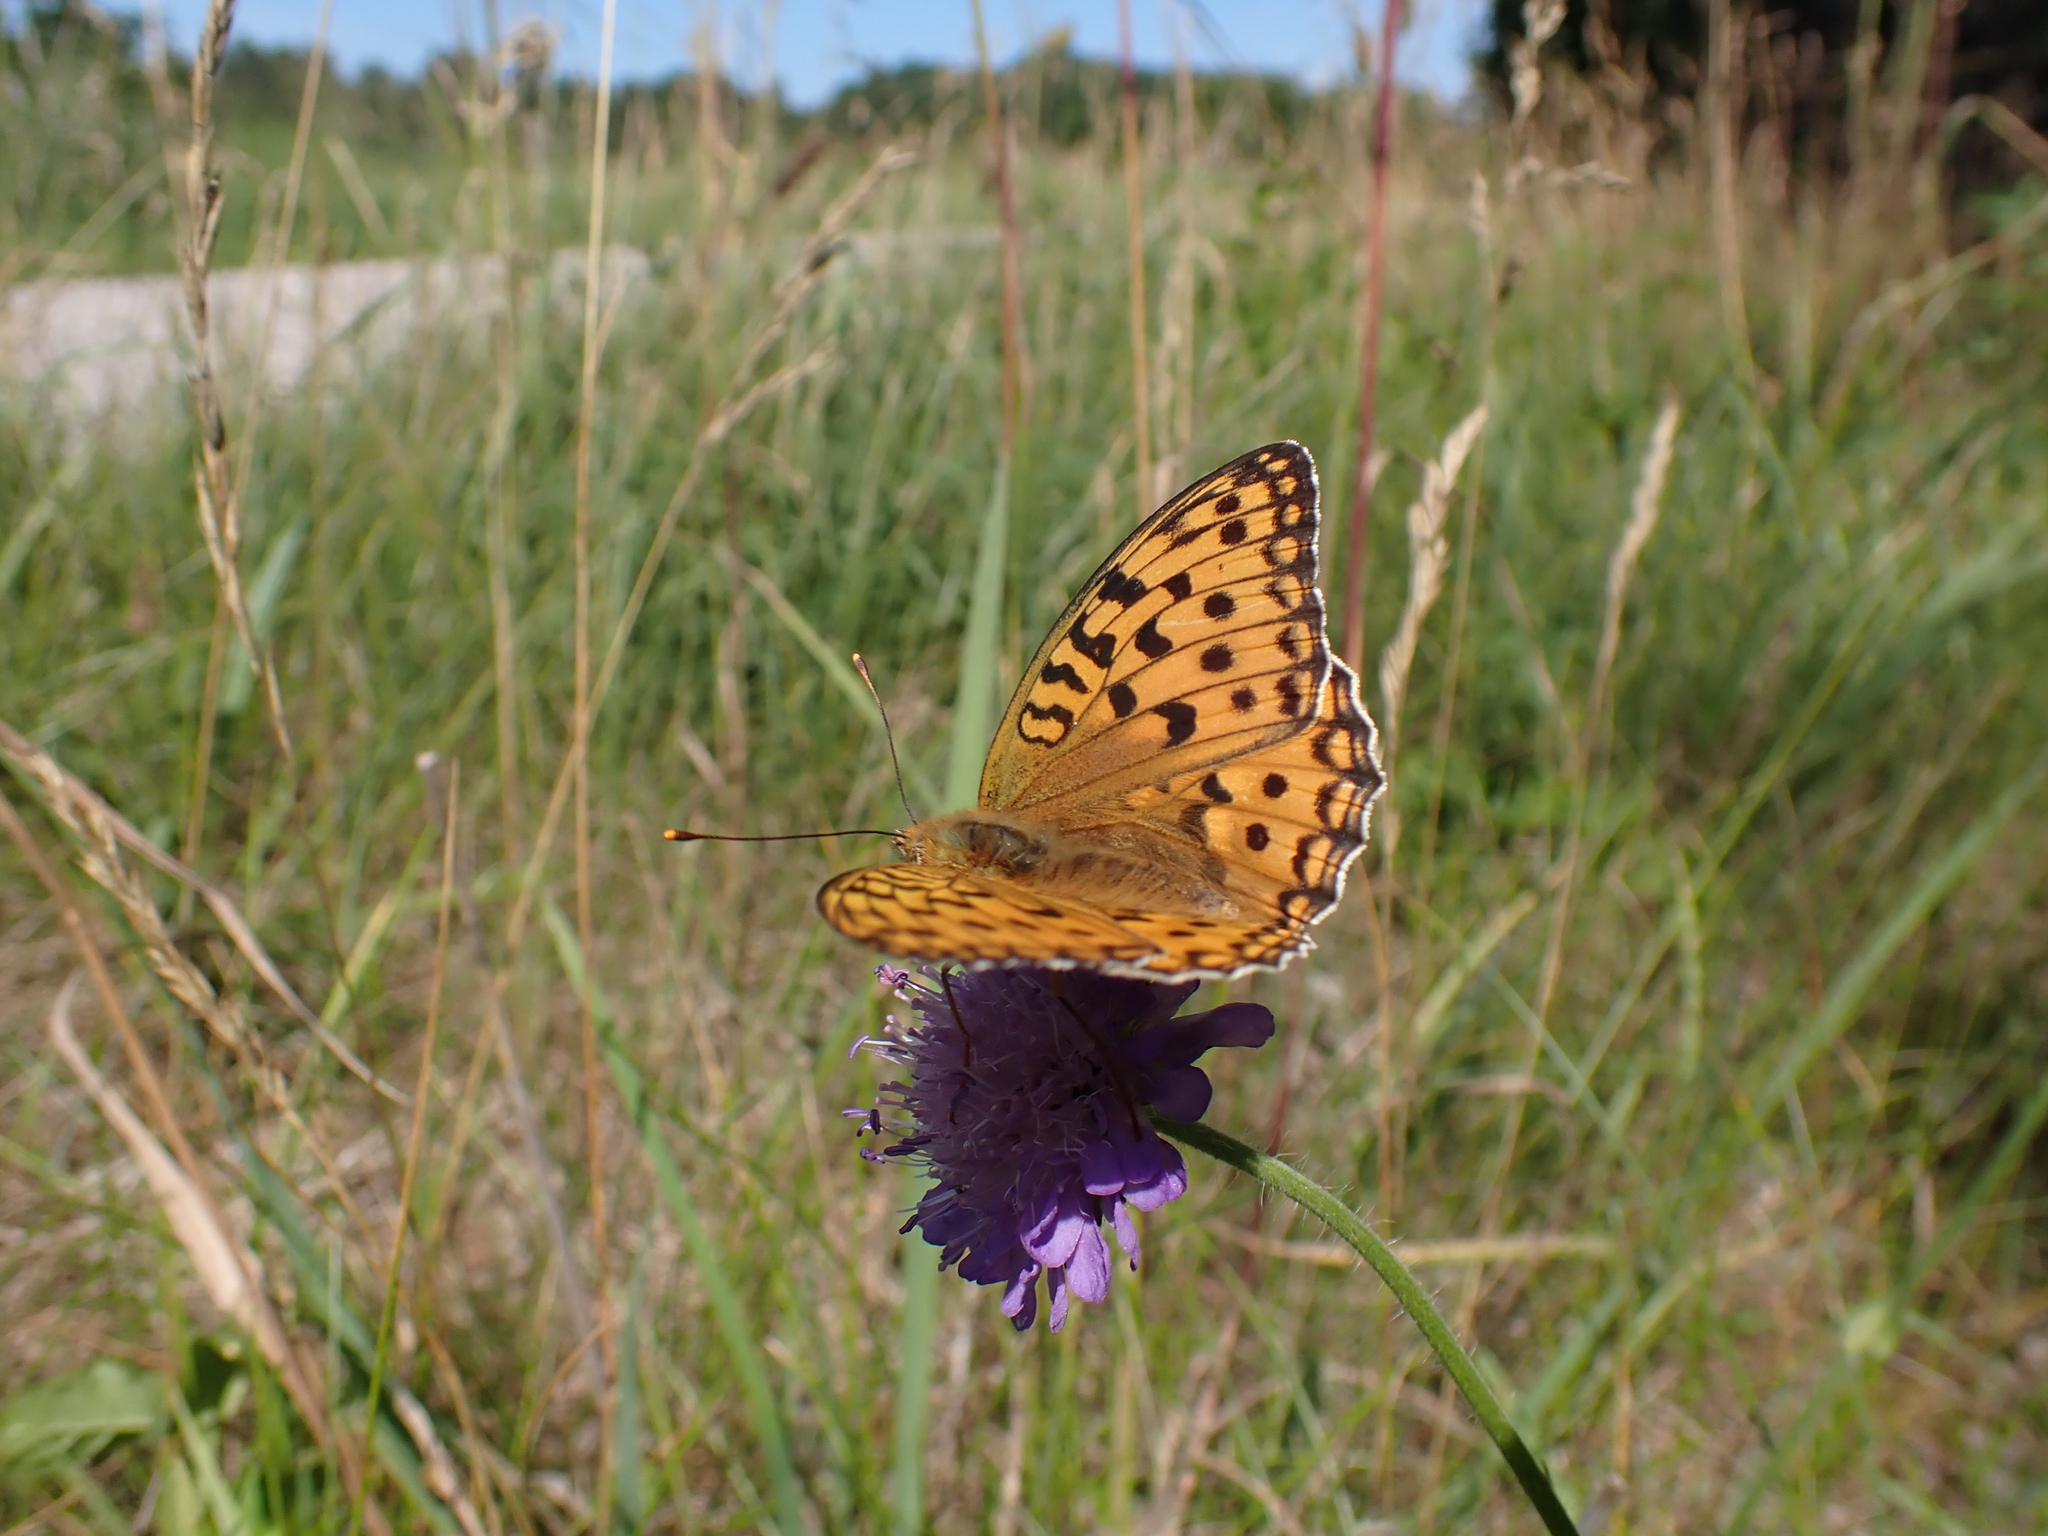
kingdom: Animalia
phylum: Arthropoda
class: Insecta
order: Lepidoptera
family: Nymphalidae
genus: Fabriciana
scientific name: Fabriciana adippe
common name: High brown fritillary
